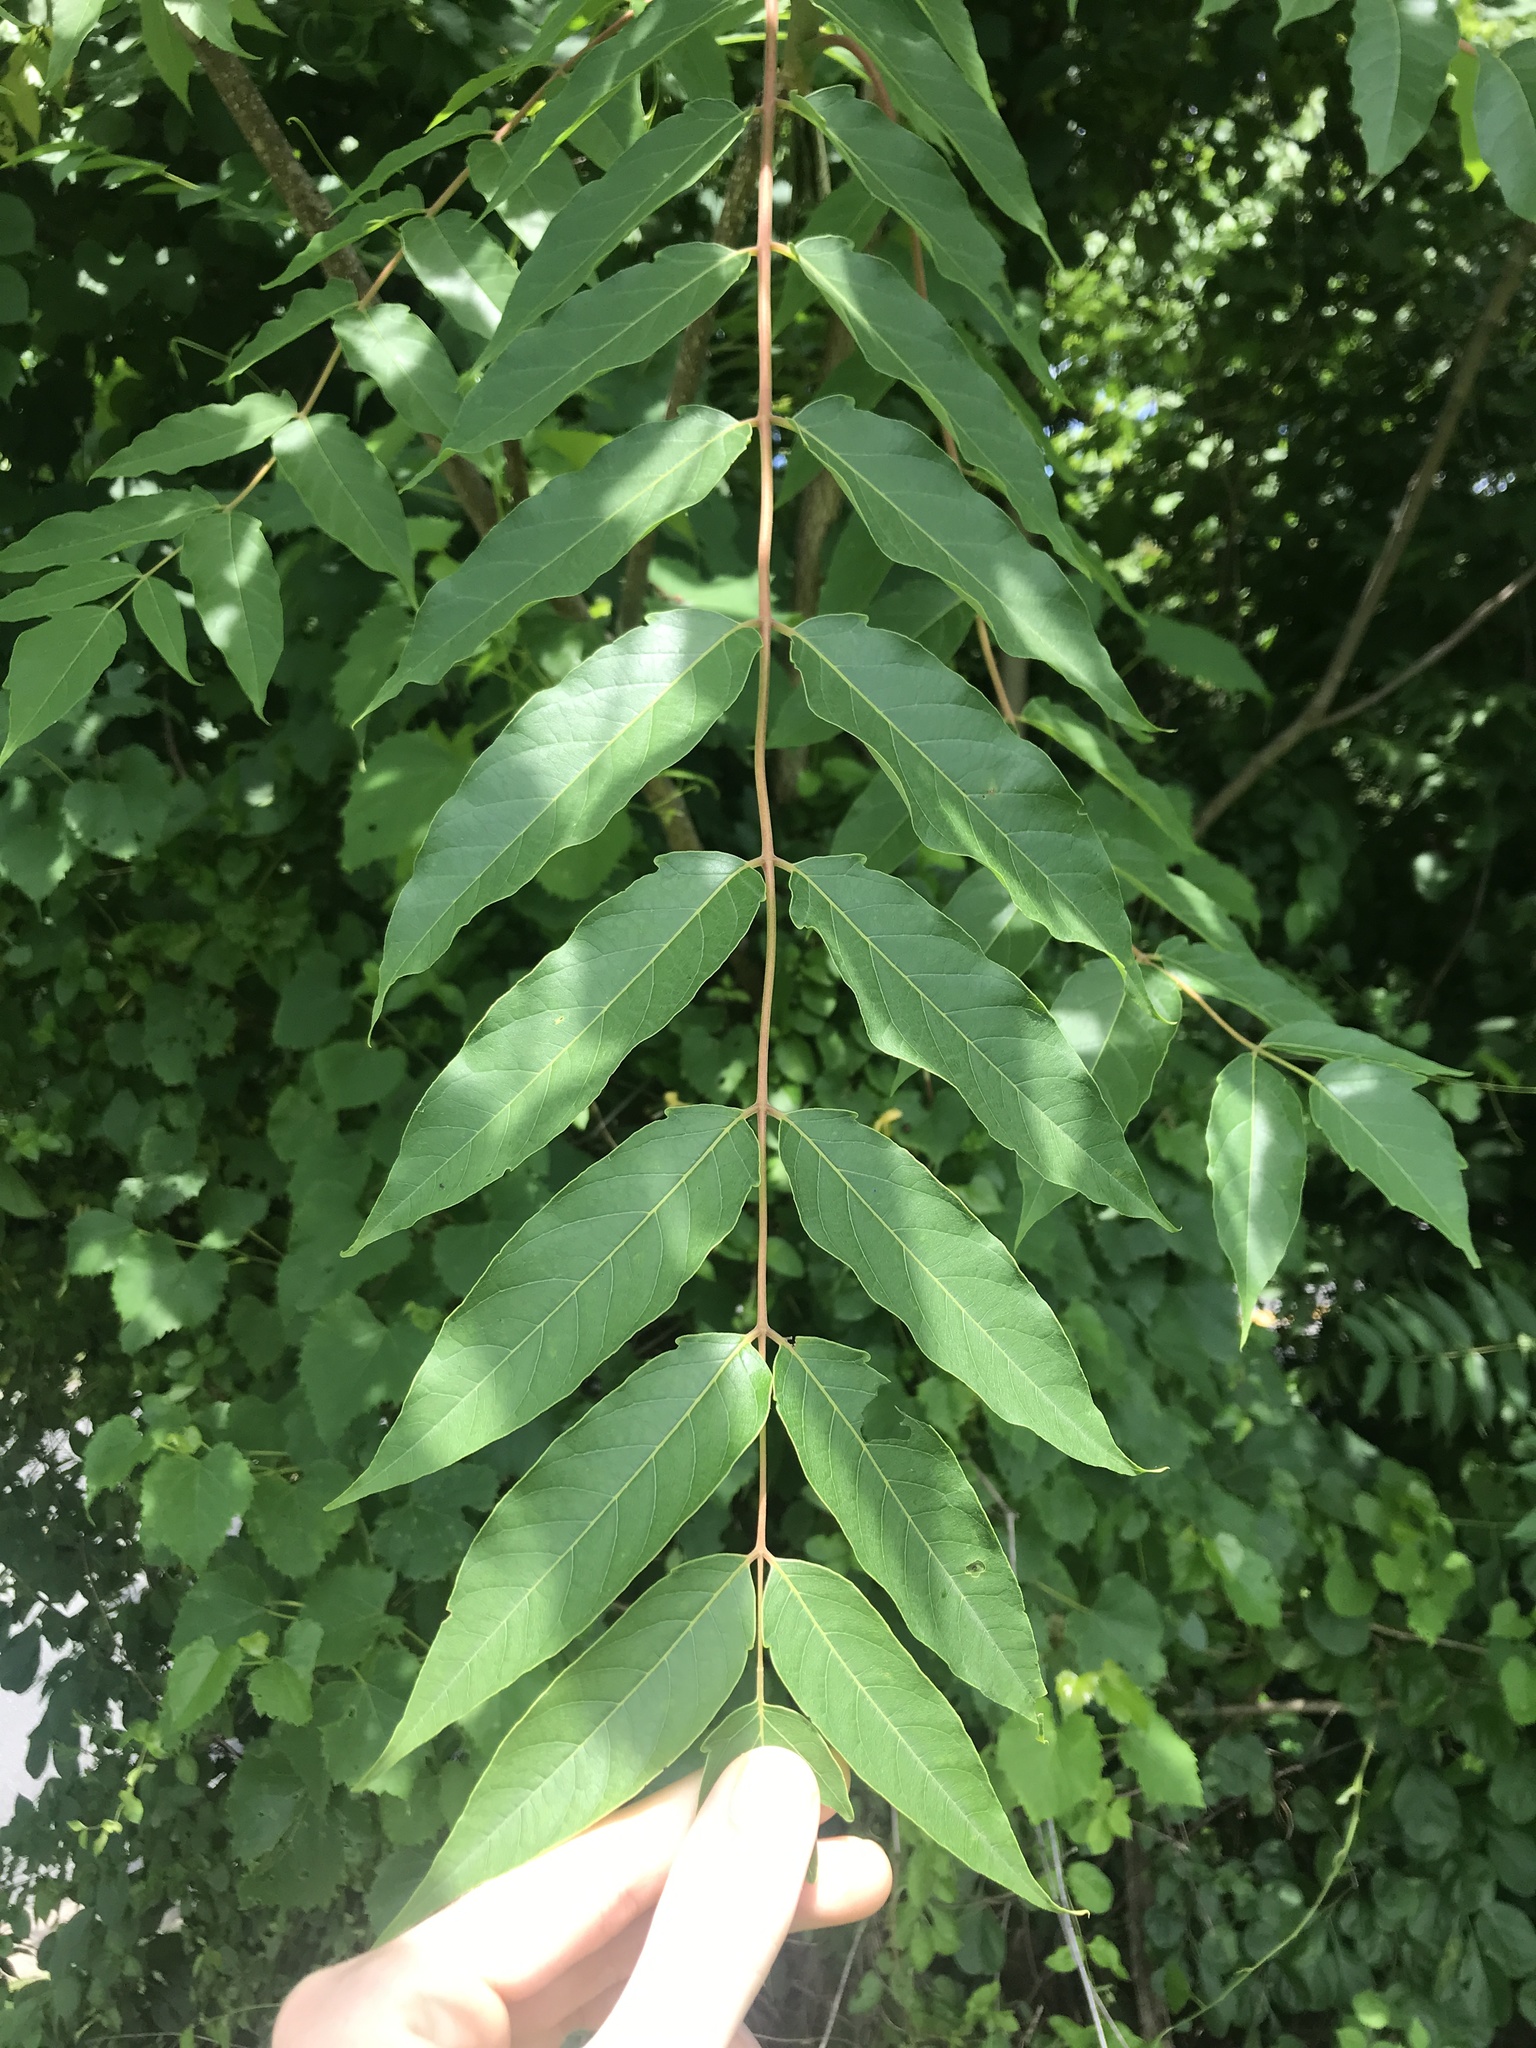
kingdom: Plantae
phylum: Tracheophyta
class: Magnoliopsida
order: Sapindales
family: Simaroubaceae
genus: Ailanthus
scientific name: Ailanthus altissima
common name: Tree-of-heaven
